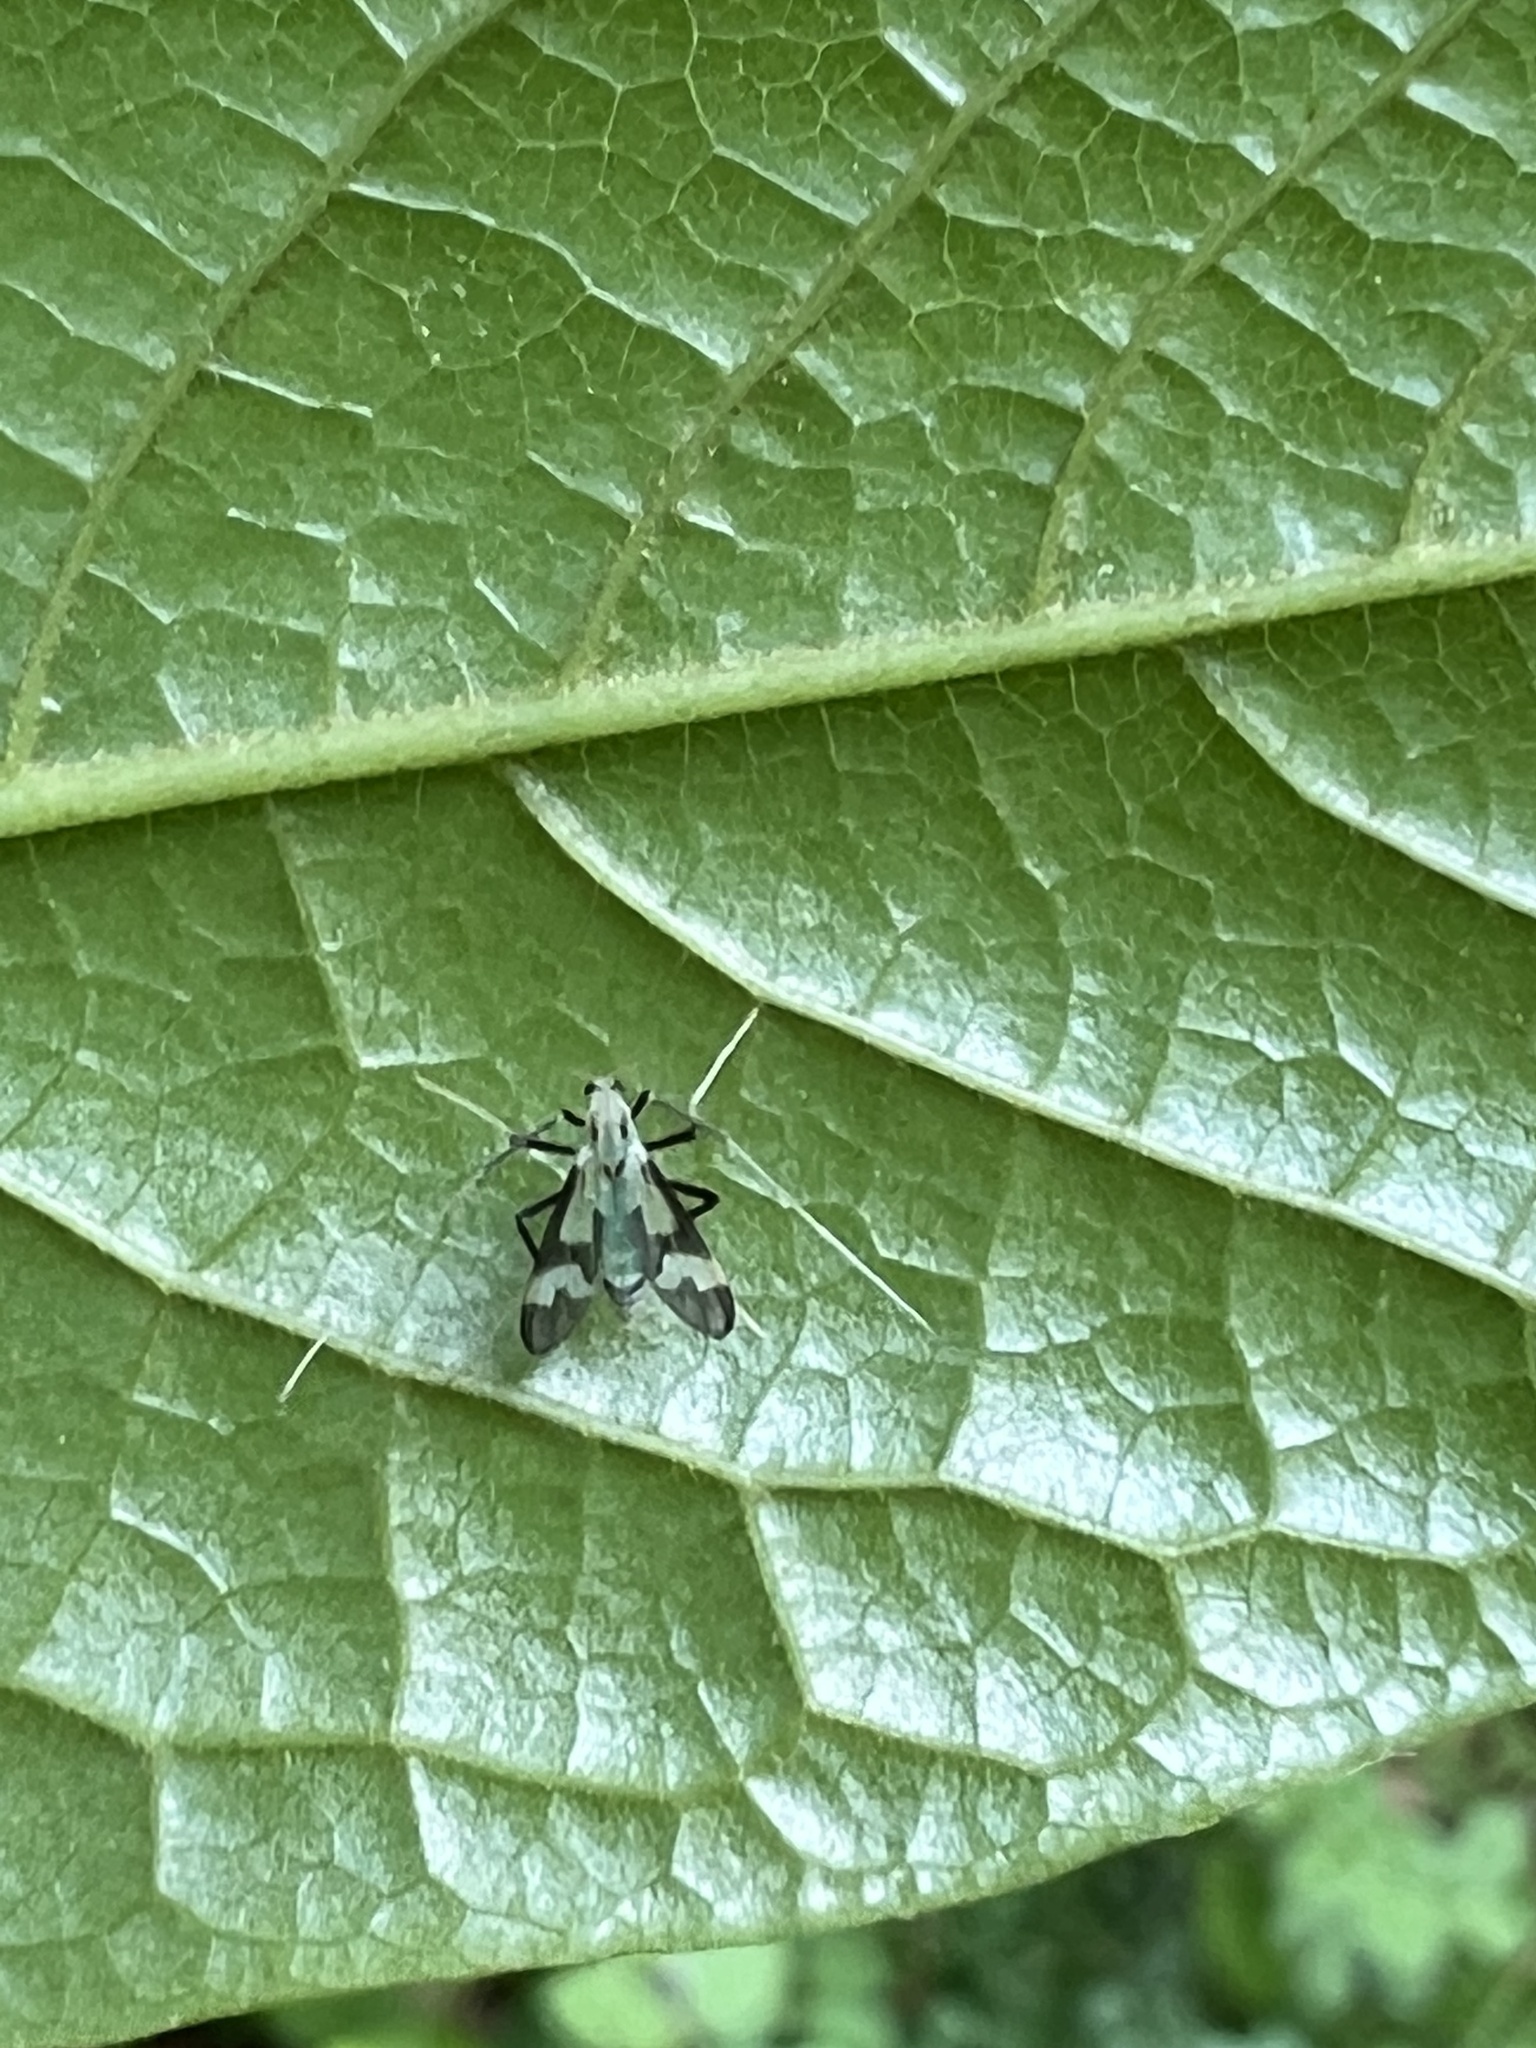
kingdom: Animalia
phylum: Arthropoda
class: Insecta
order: Diptera
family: Chironomidae
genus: Stenochironomus
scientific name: Stenochironomus hilaris
